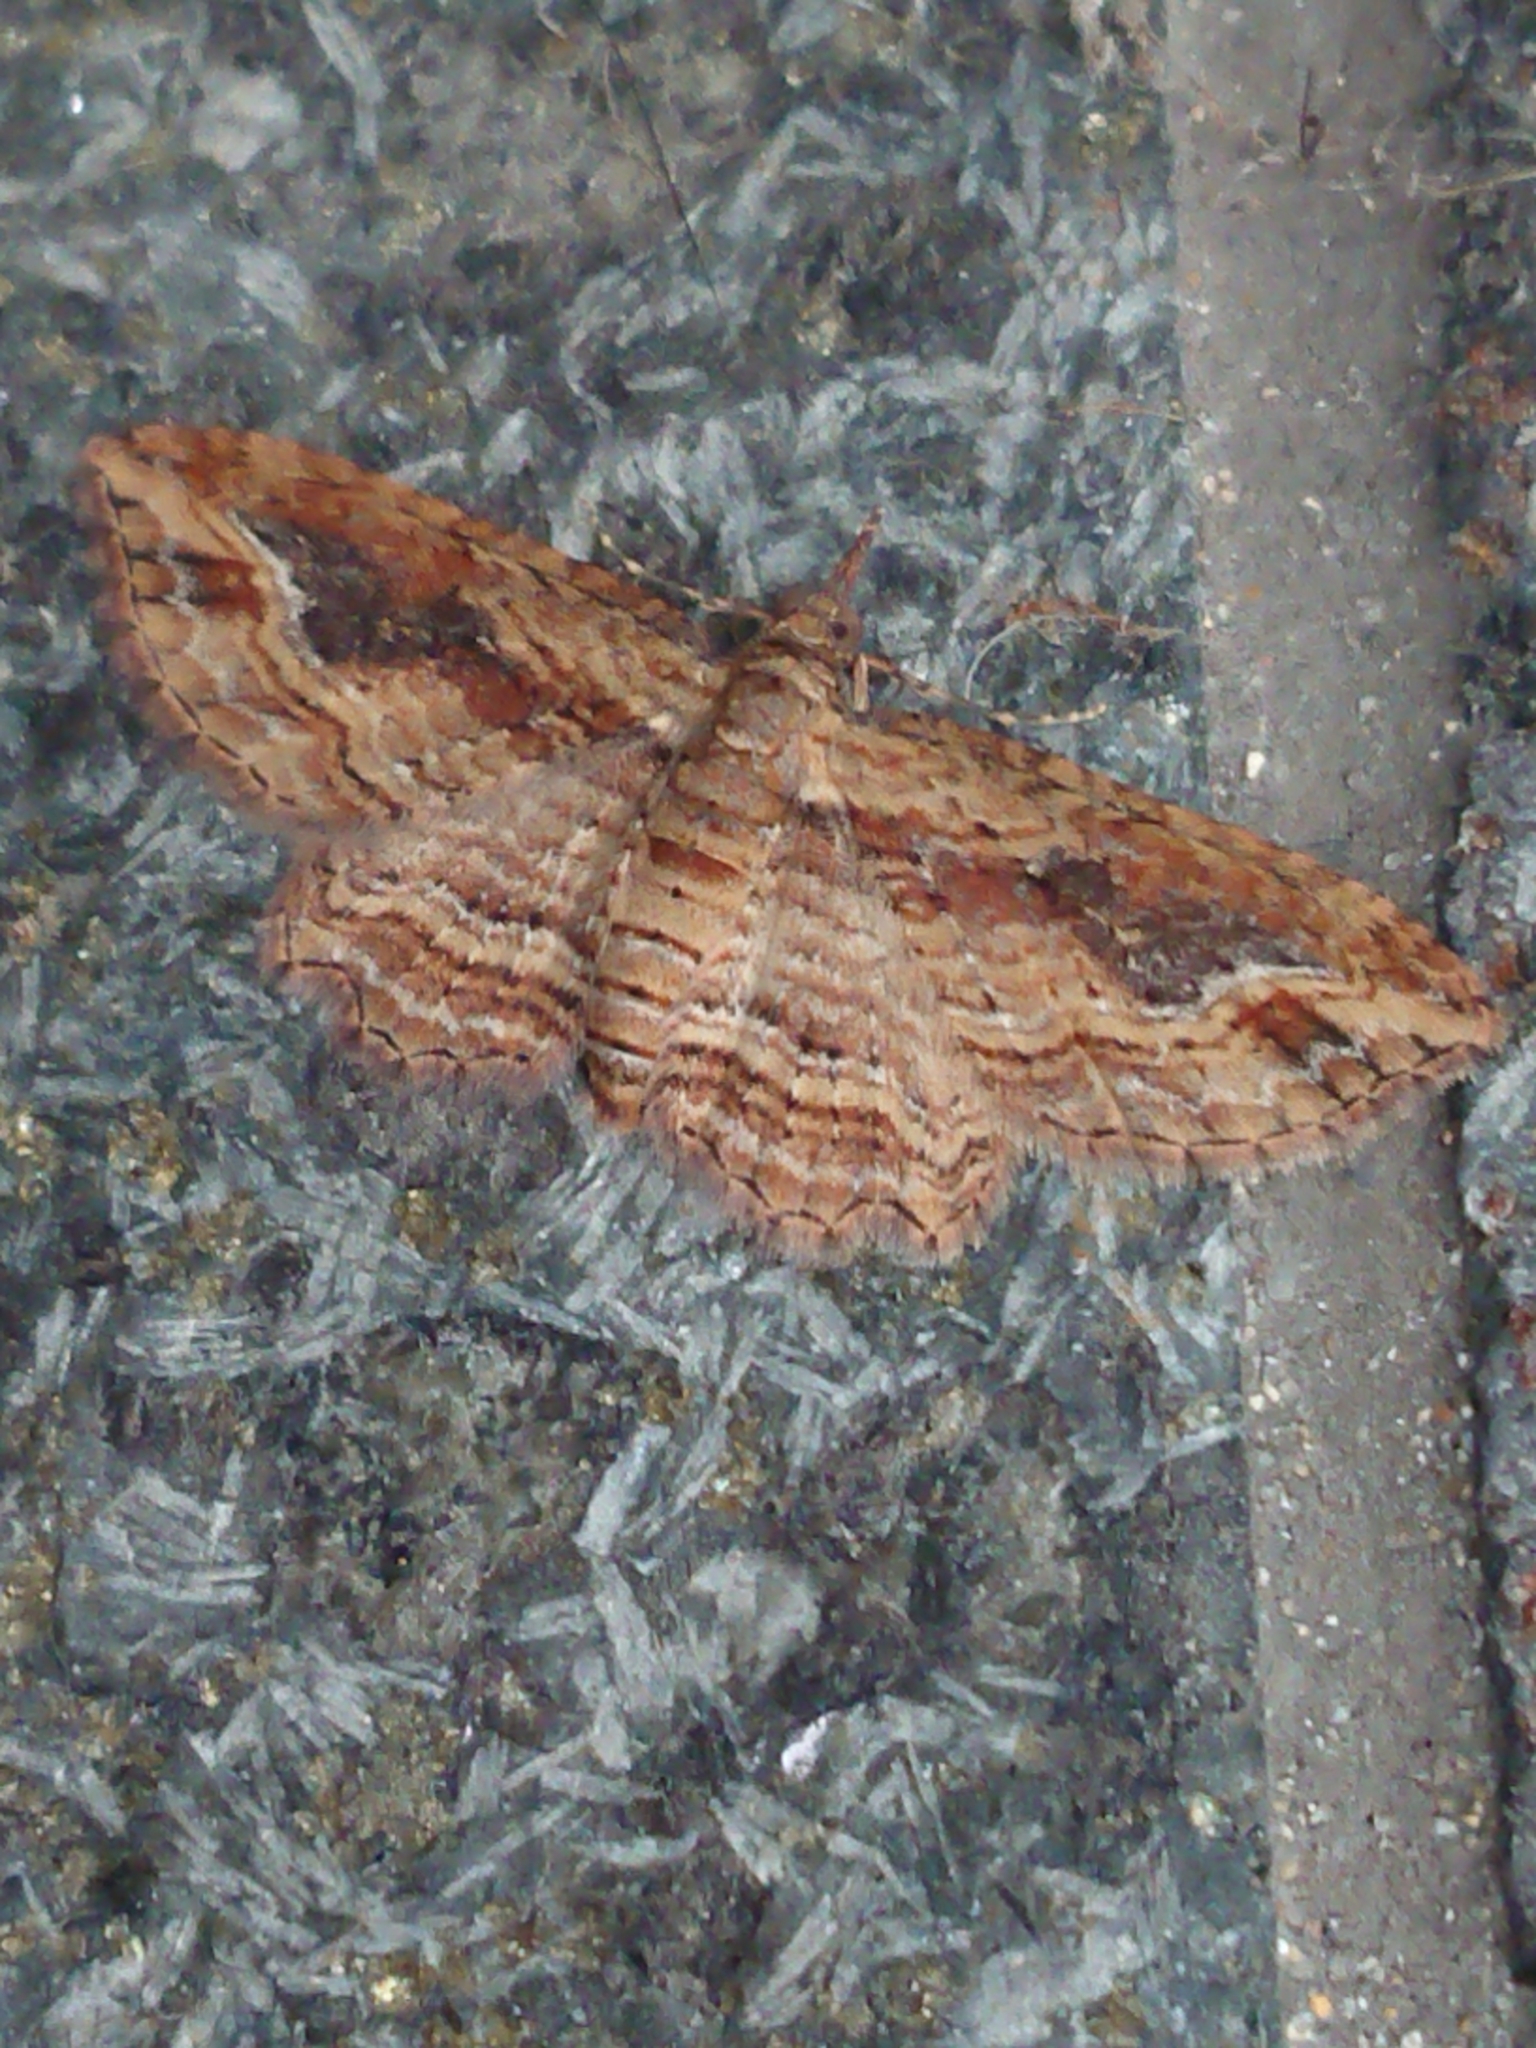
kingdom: Animalia
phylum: Arthropoda
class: Insecta
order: Lepidoptera
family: Geometridae
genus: Chloroclystis
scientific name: Chloroclystis filata
